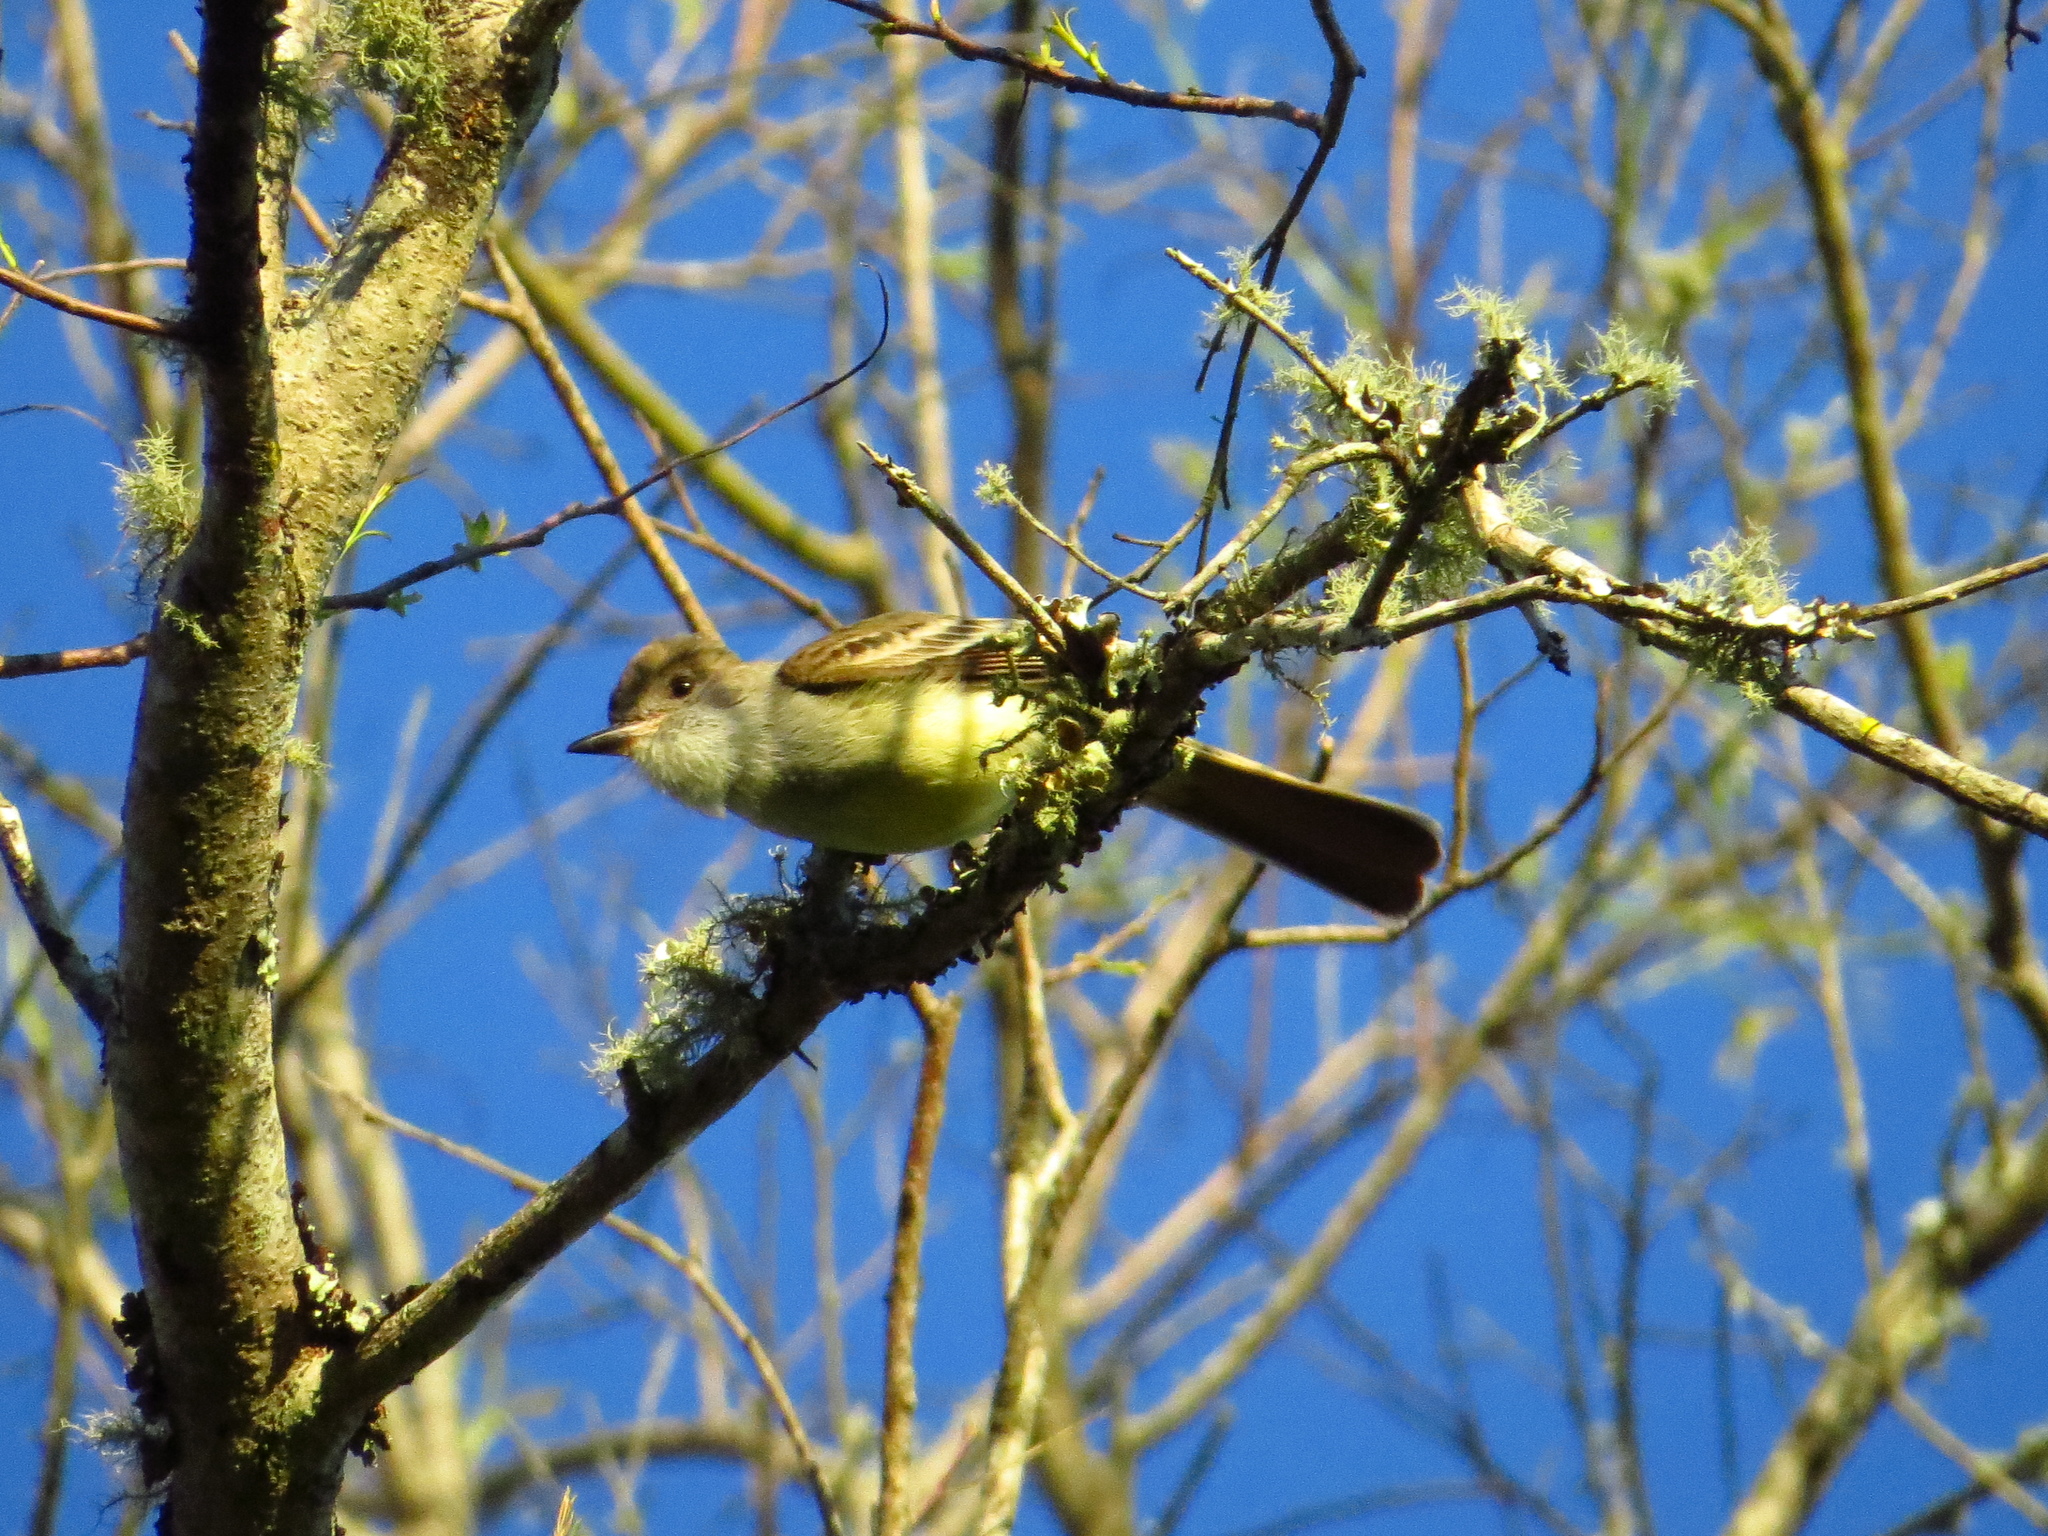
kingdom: Animalia
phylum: Chordata
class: Aves
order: Passeriformes
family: Tyrannidae
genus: Myiarchus
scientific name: Myiarchus tyrannulus
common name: Brown-crested flycatcher
